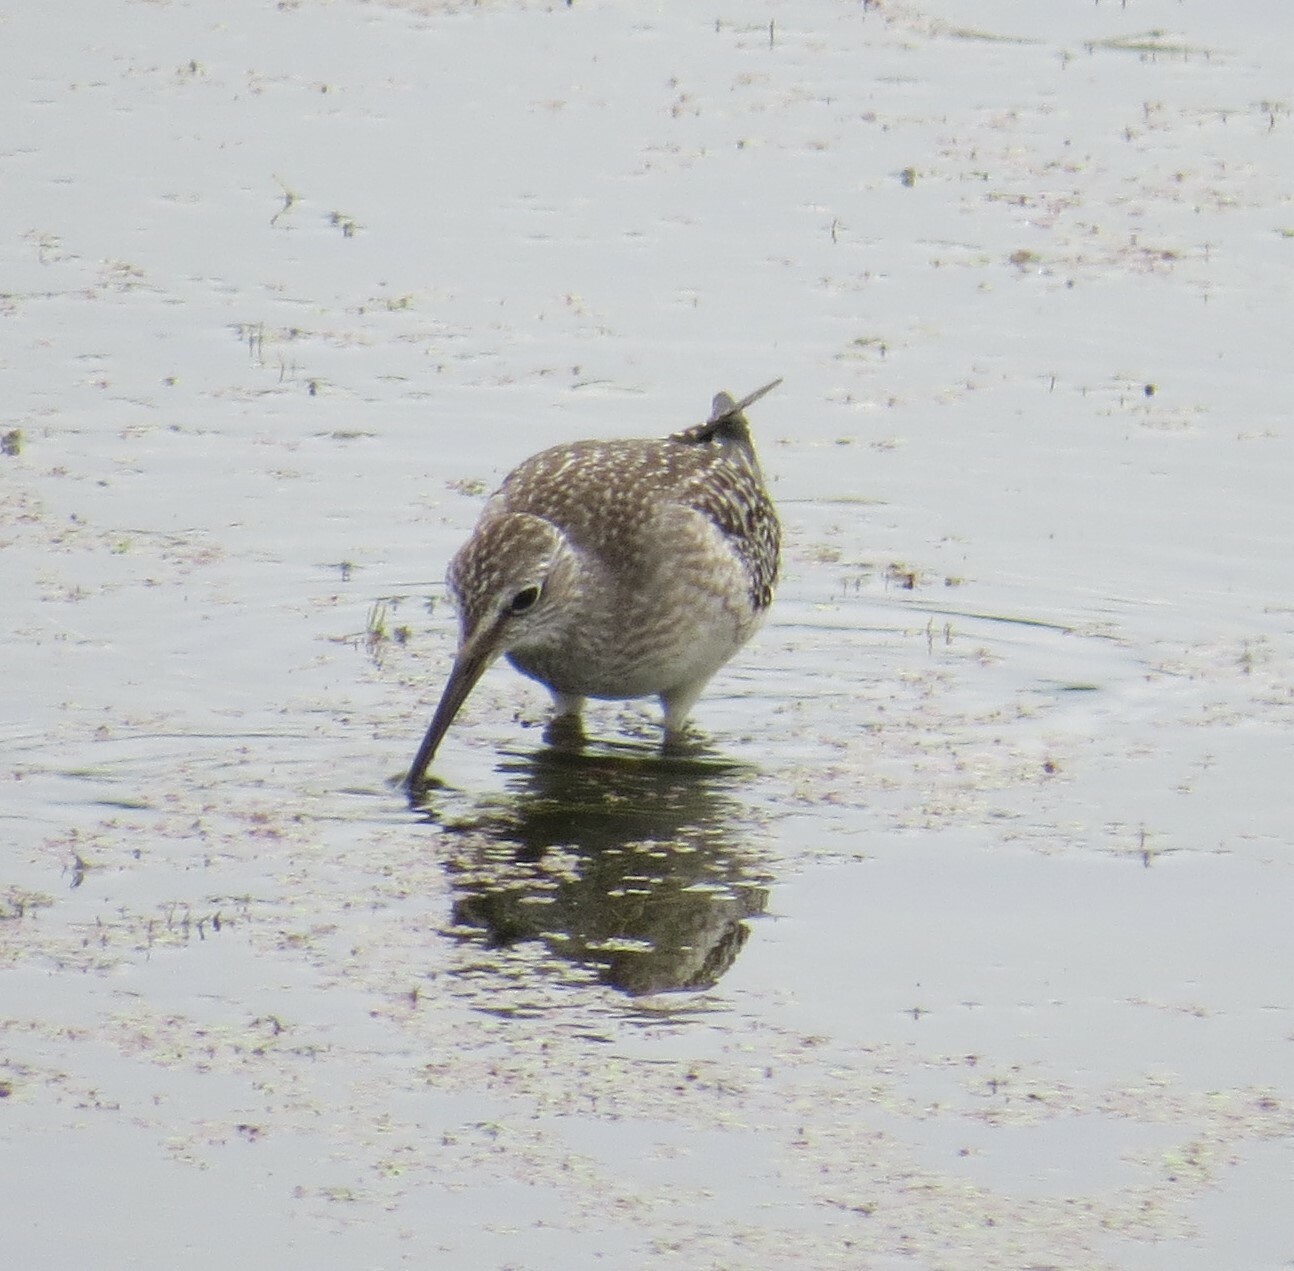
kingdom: Animalia
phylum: Chordata
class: Aves
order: Charadriiformes
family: Scolopacidae
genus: Tringa
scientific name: Tringa flavipes
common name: Lesser yellowlegs
